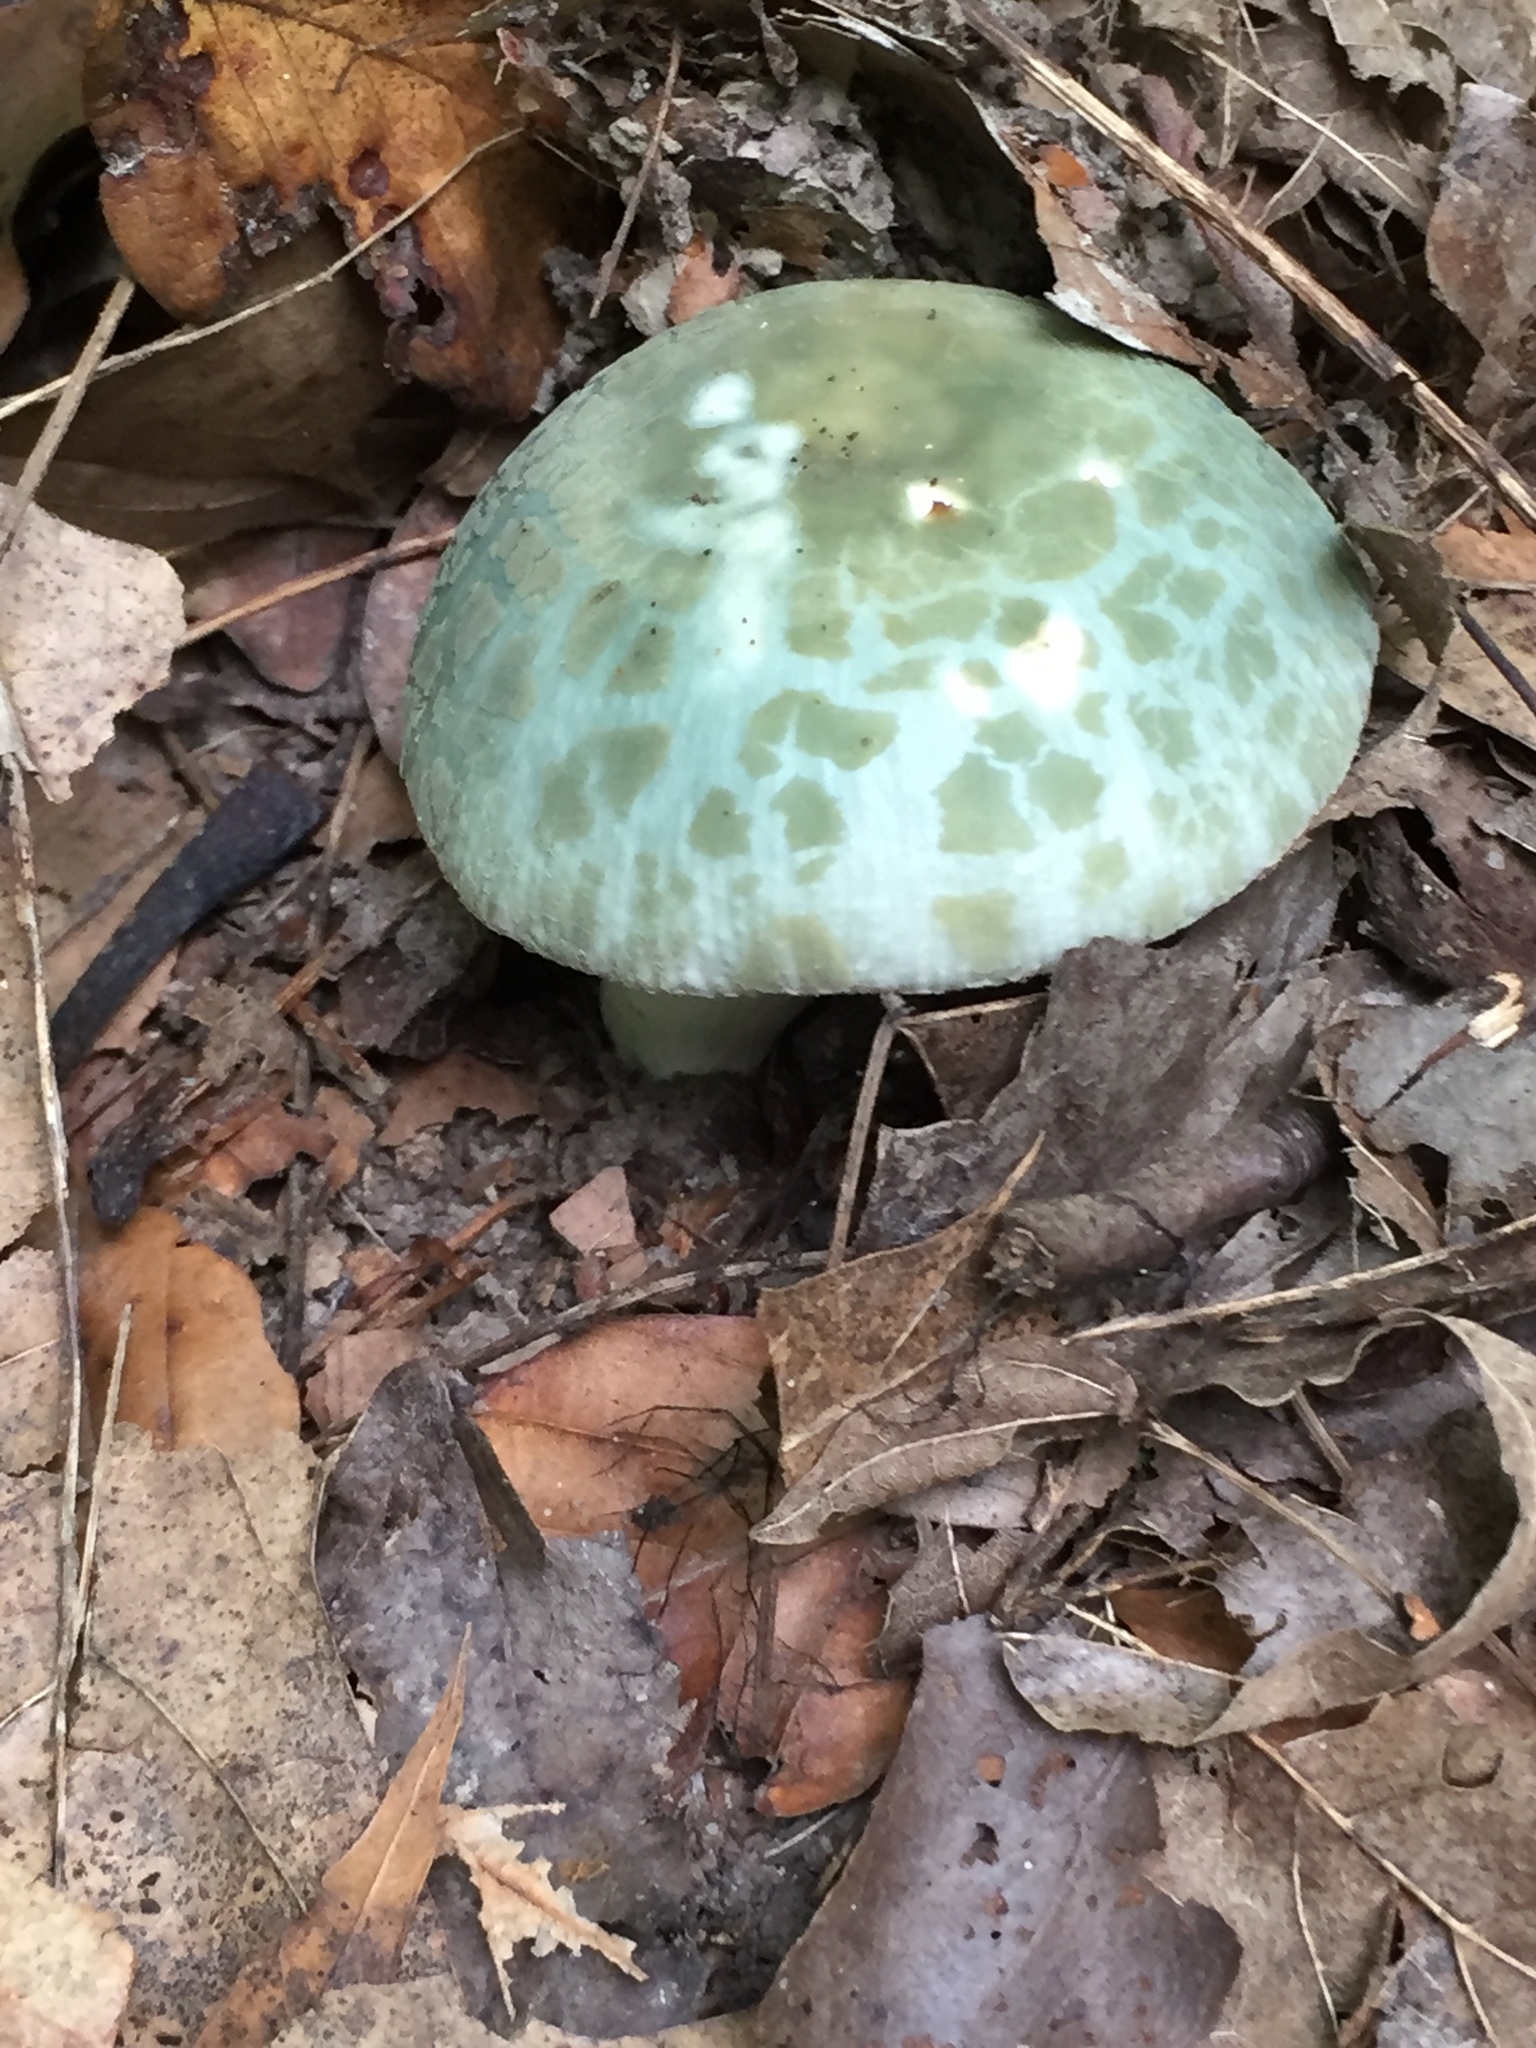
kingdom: Fungi
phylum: Basidiomycota
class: Agaricomycetes
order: Russulales
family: Russulaceae
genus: Russula
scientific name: Russula parvovirescens
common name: Blue-green cracking russula
